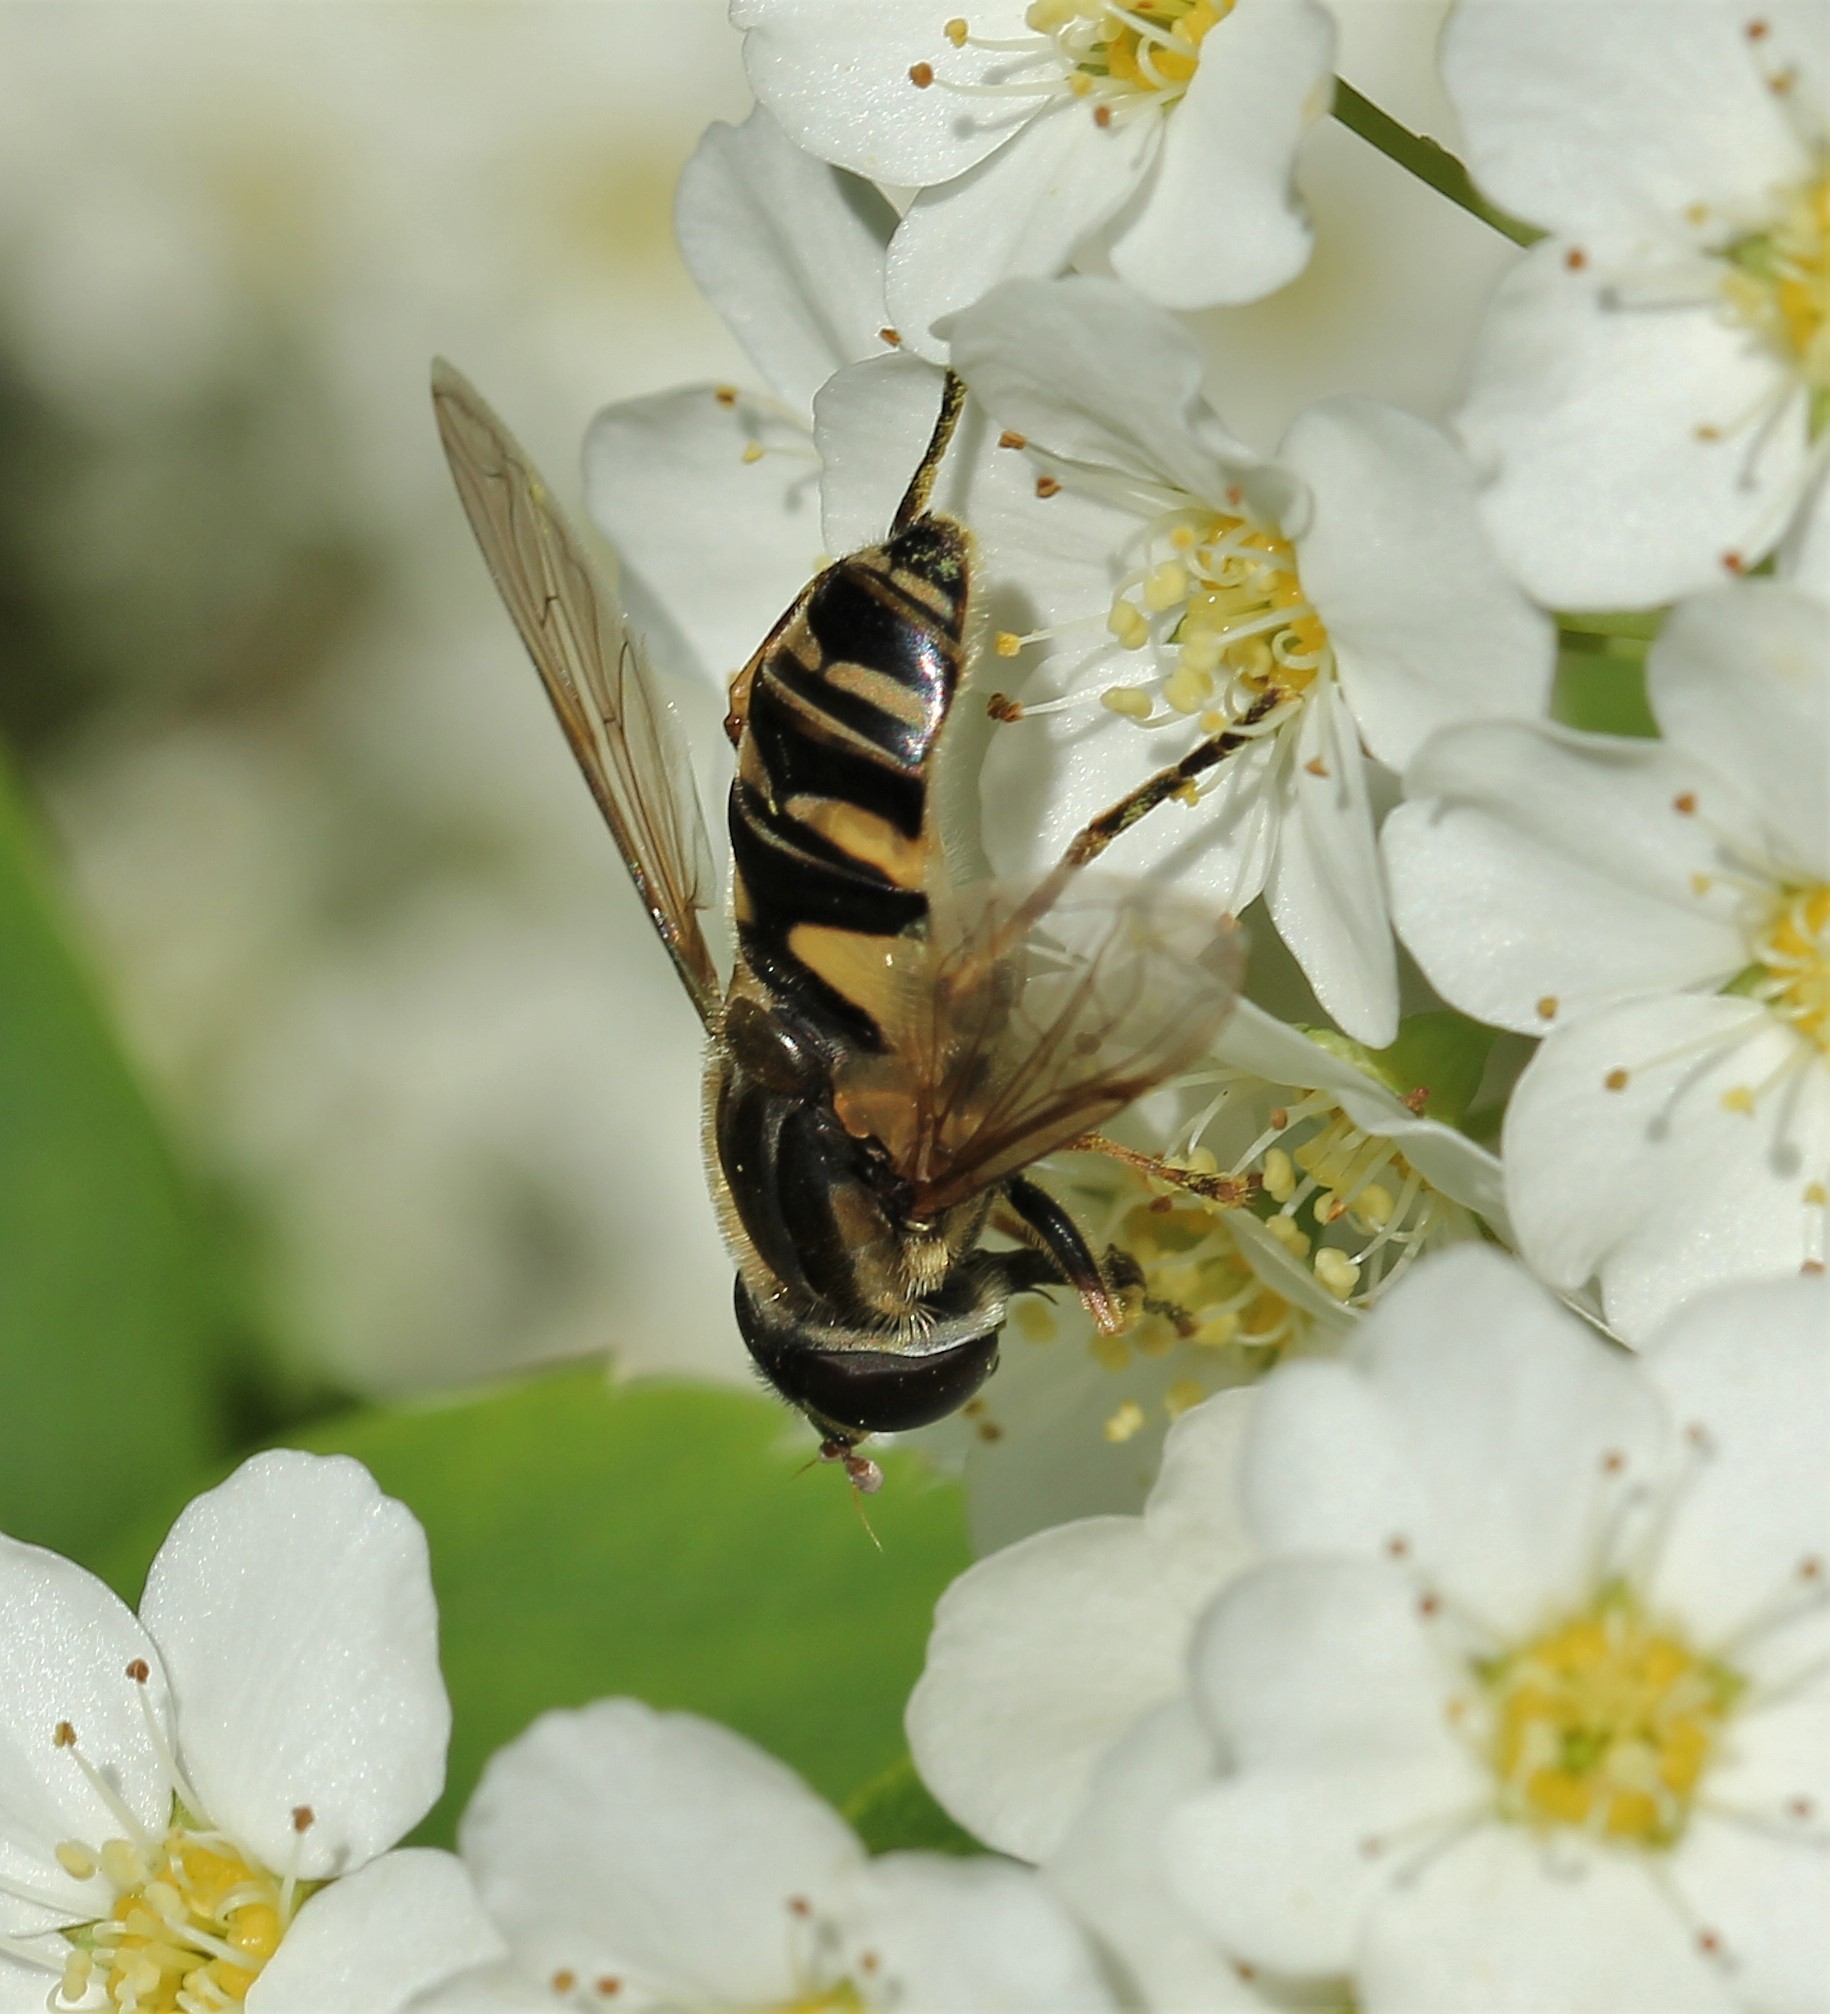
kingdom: Animalia
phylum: Arthropoda
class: Insecta
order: Diptera
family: Syrphidae
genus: Helophilus
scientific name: Helophilus fasciatus
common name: Narrow-headed marsh fly
